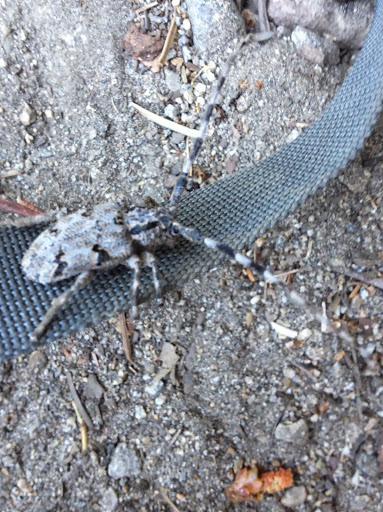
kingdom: Animalia
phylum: Arthropoda
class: Insecta
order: Coleoptera
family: Cerambycidae
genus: Synaphaeta
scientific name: Synaphaeta guexi
